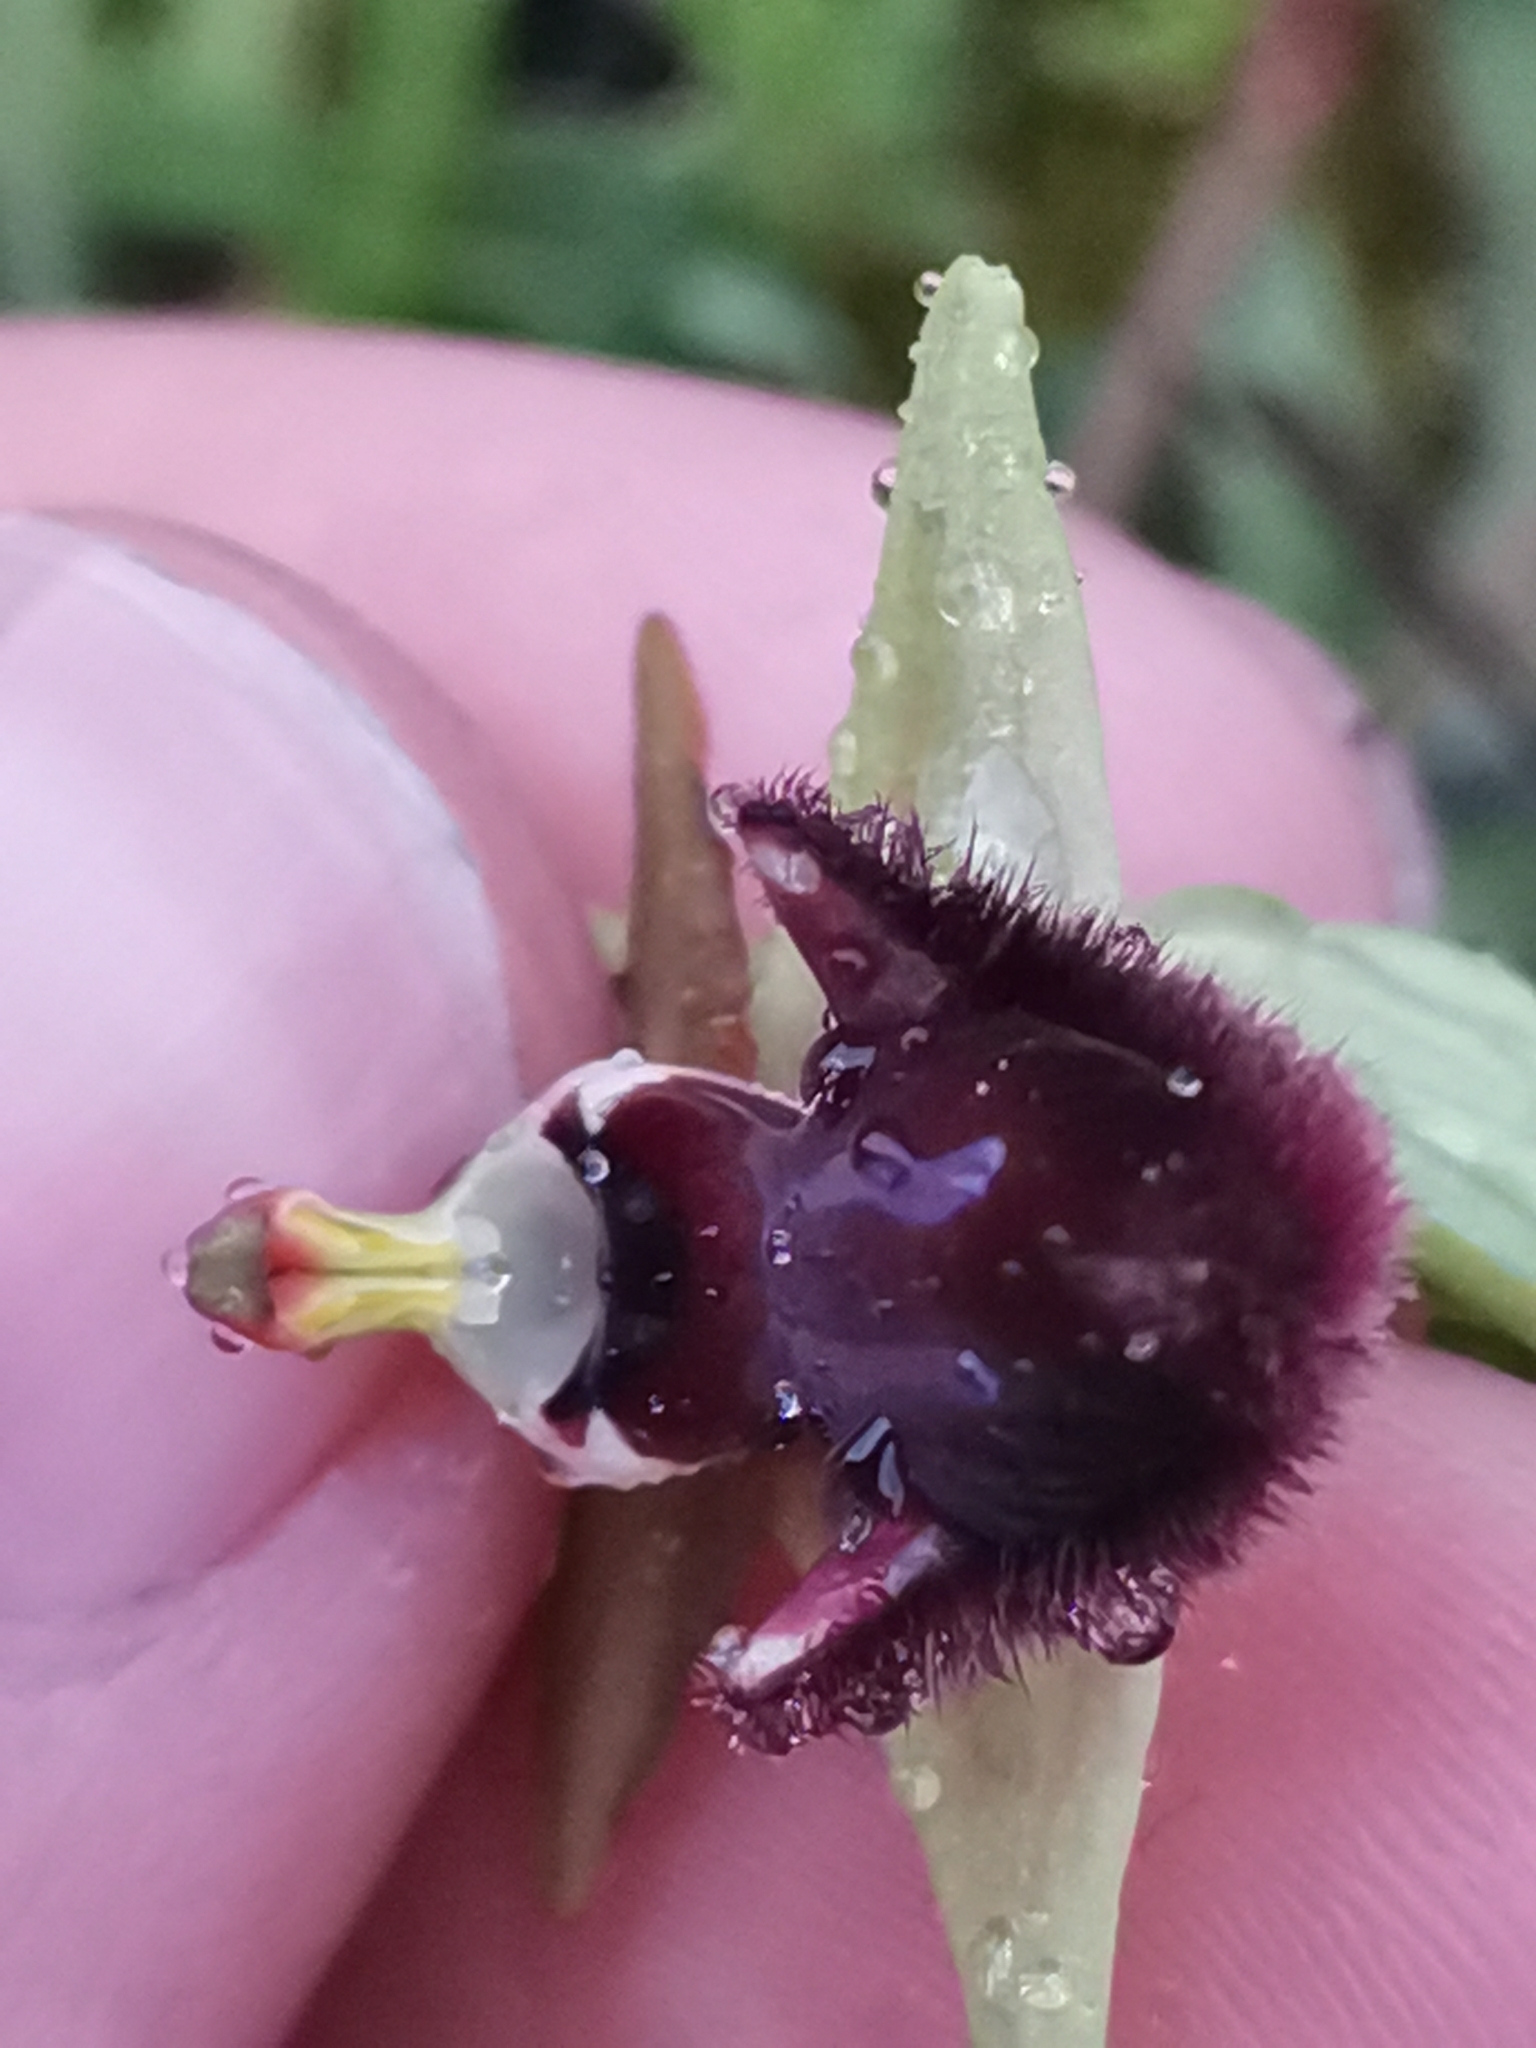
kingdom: Plantae
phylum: Tracheophyta
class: Liliopsida
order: Asparagales
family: Orchidaceae
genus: Ophrys
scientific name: Ophrys sphegodes
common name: Early spider-orchid
